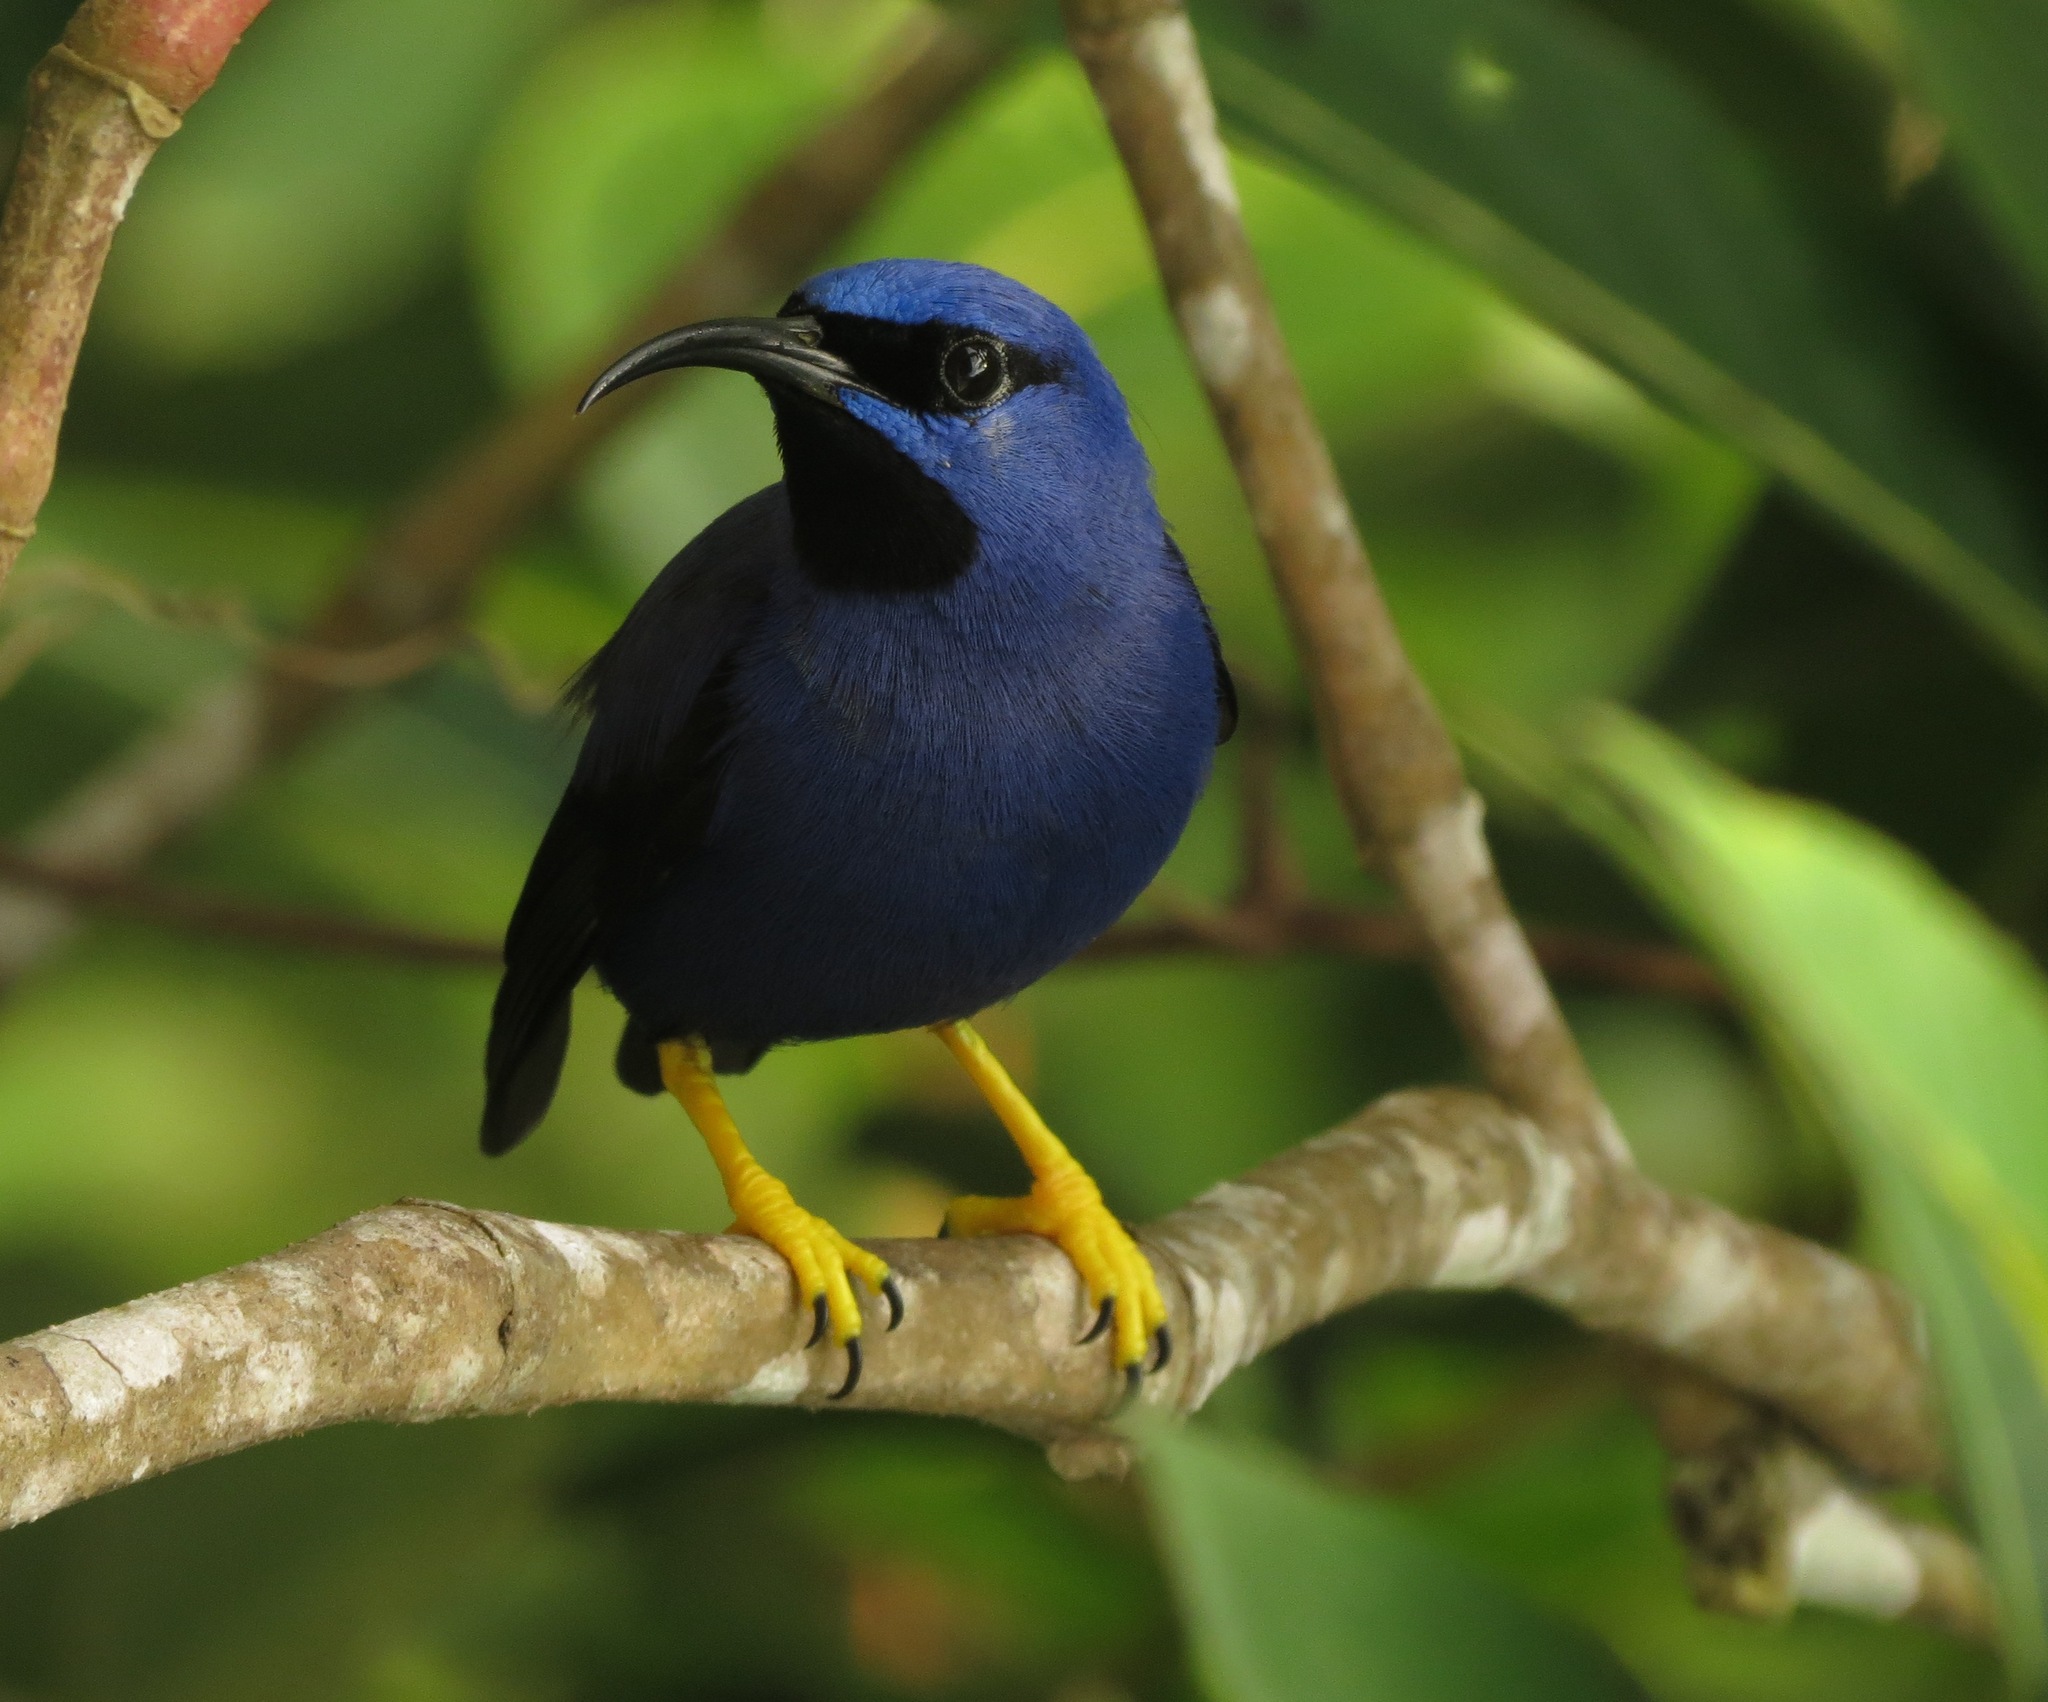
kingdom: Animalia
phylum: Chordata
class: Aves
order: Passeriformes
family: Thraupidae
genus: Cyanerpes
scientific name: Cyanerpes caeruleus
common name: Purple honeycreeper
